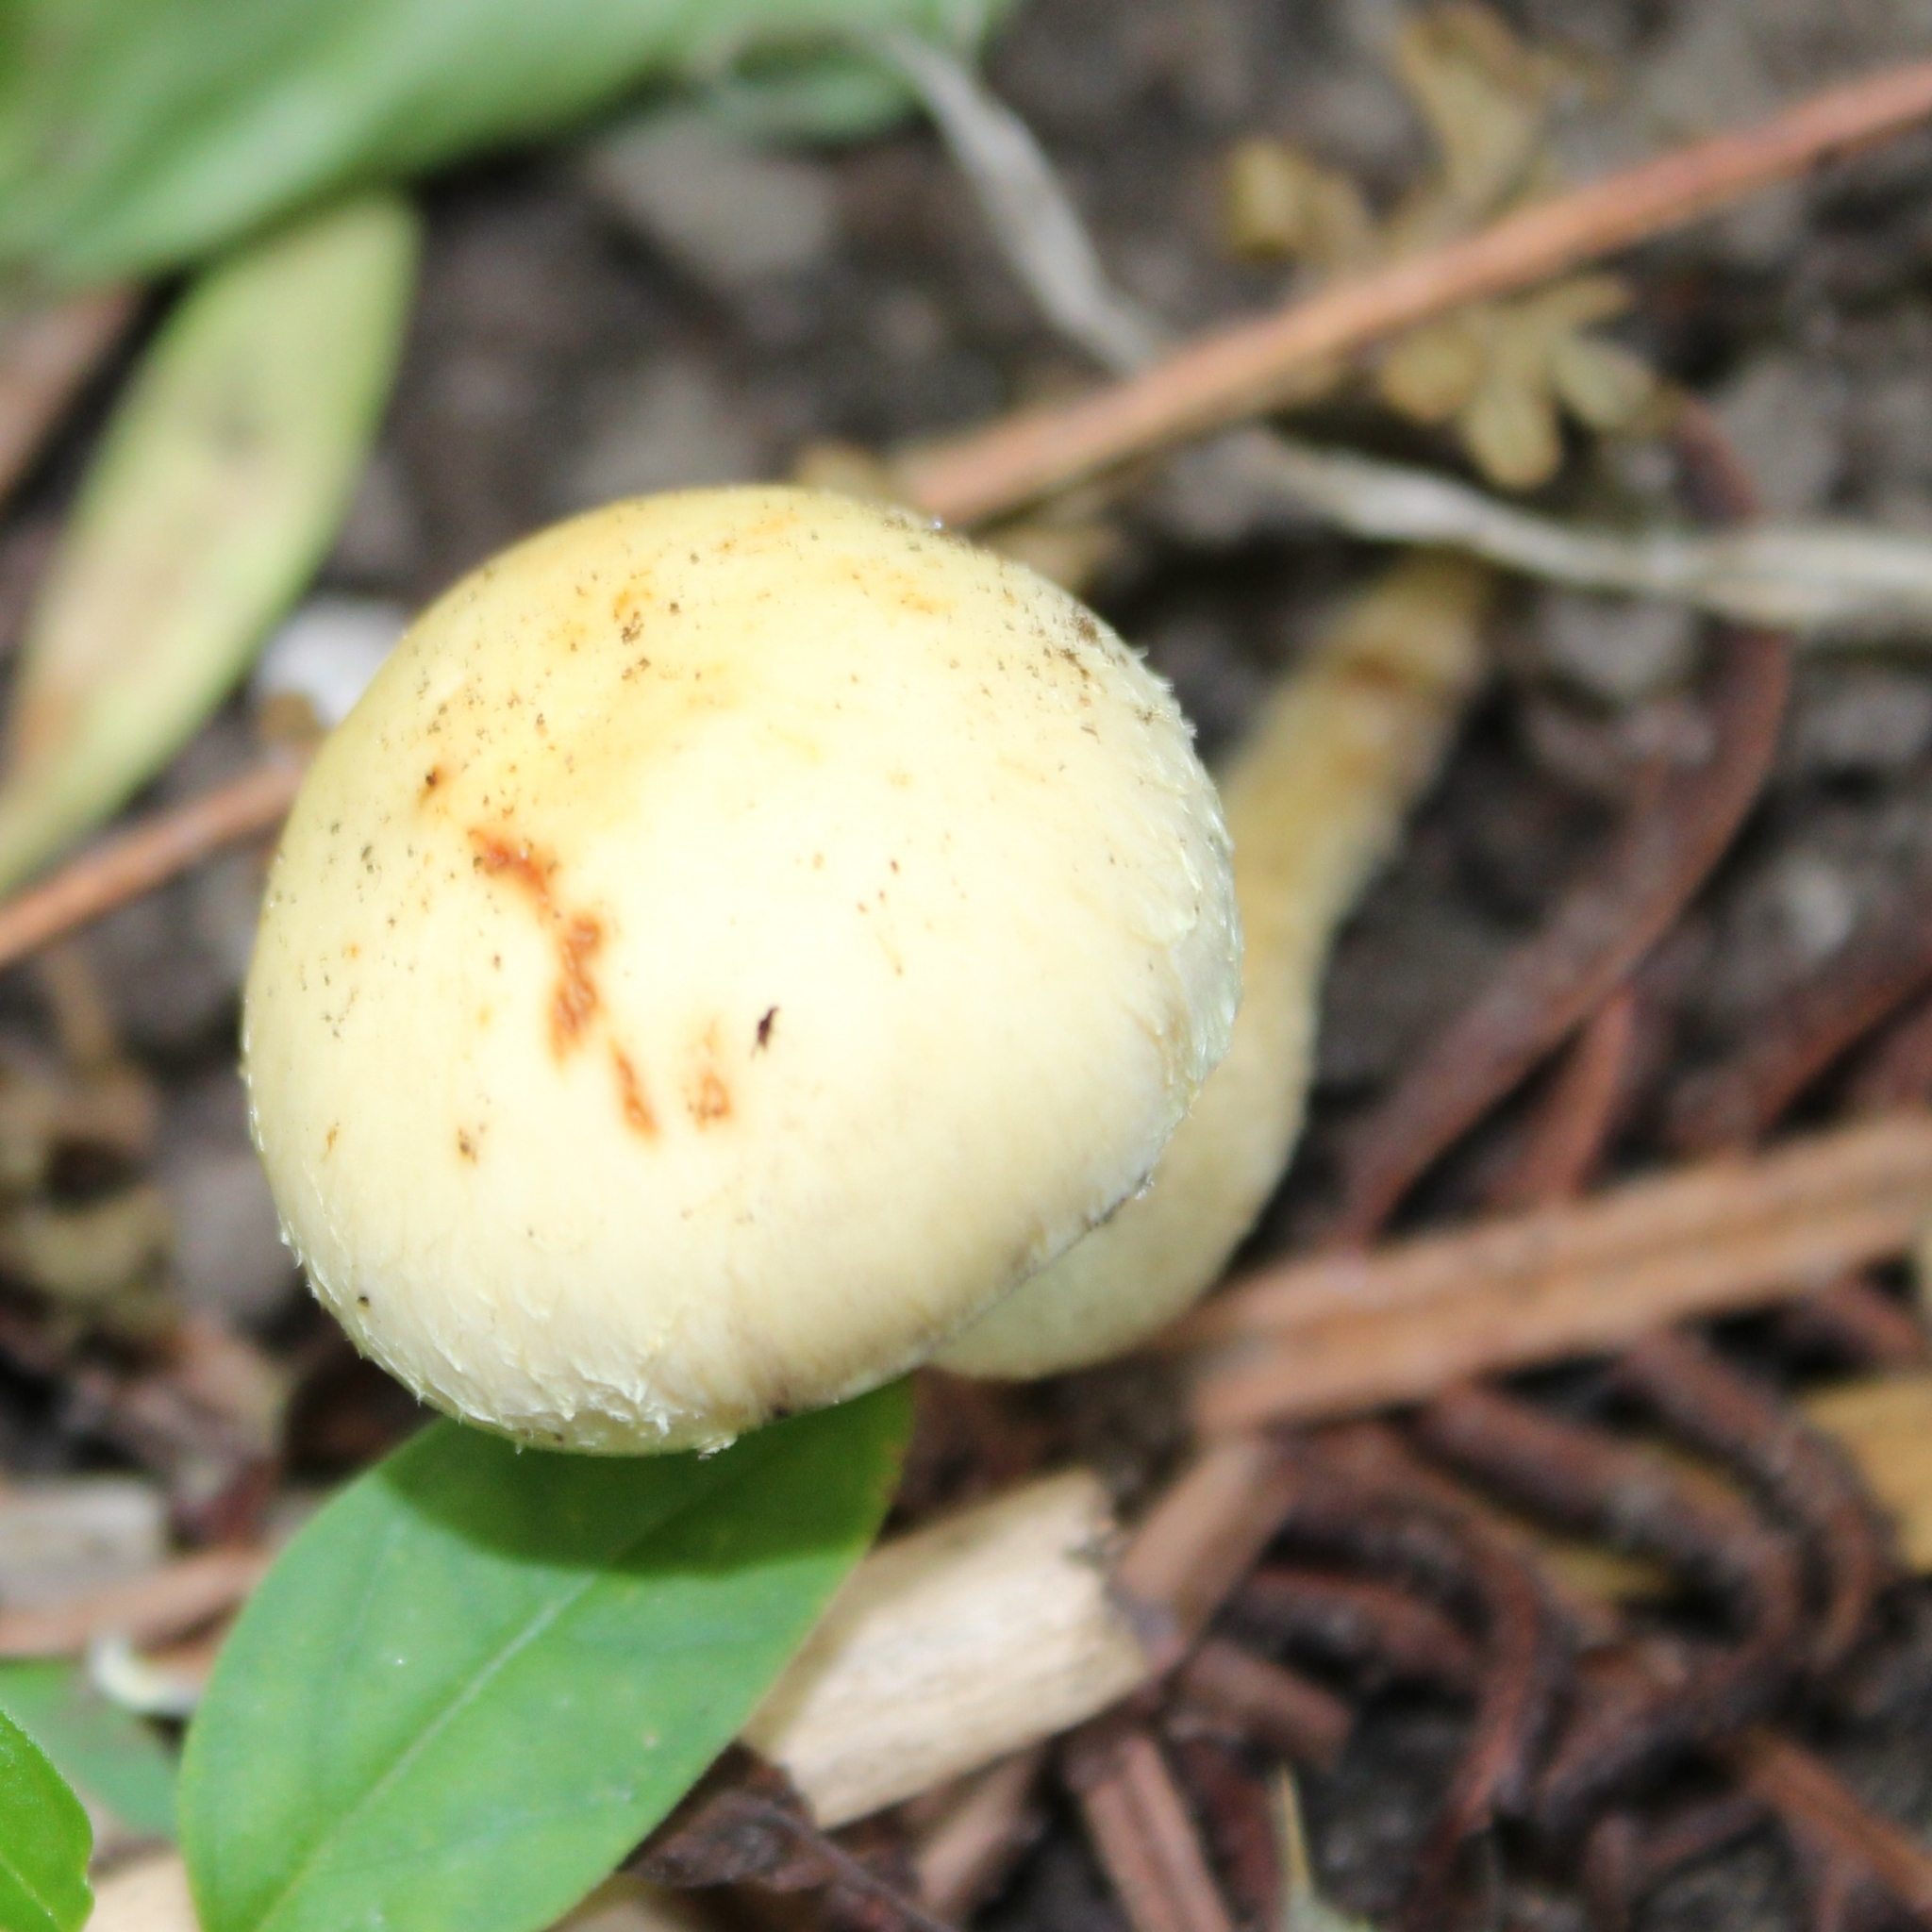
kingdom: Fungi
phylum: Basidiomycota
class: Agaricomycetes
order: Agaricales
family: Psathyrellaceae
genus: Candolleomyces
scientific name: Candolleomyces candolleanus
